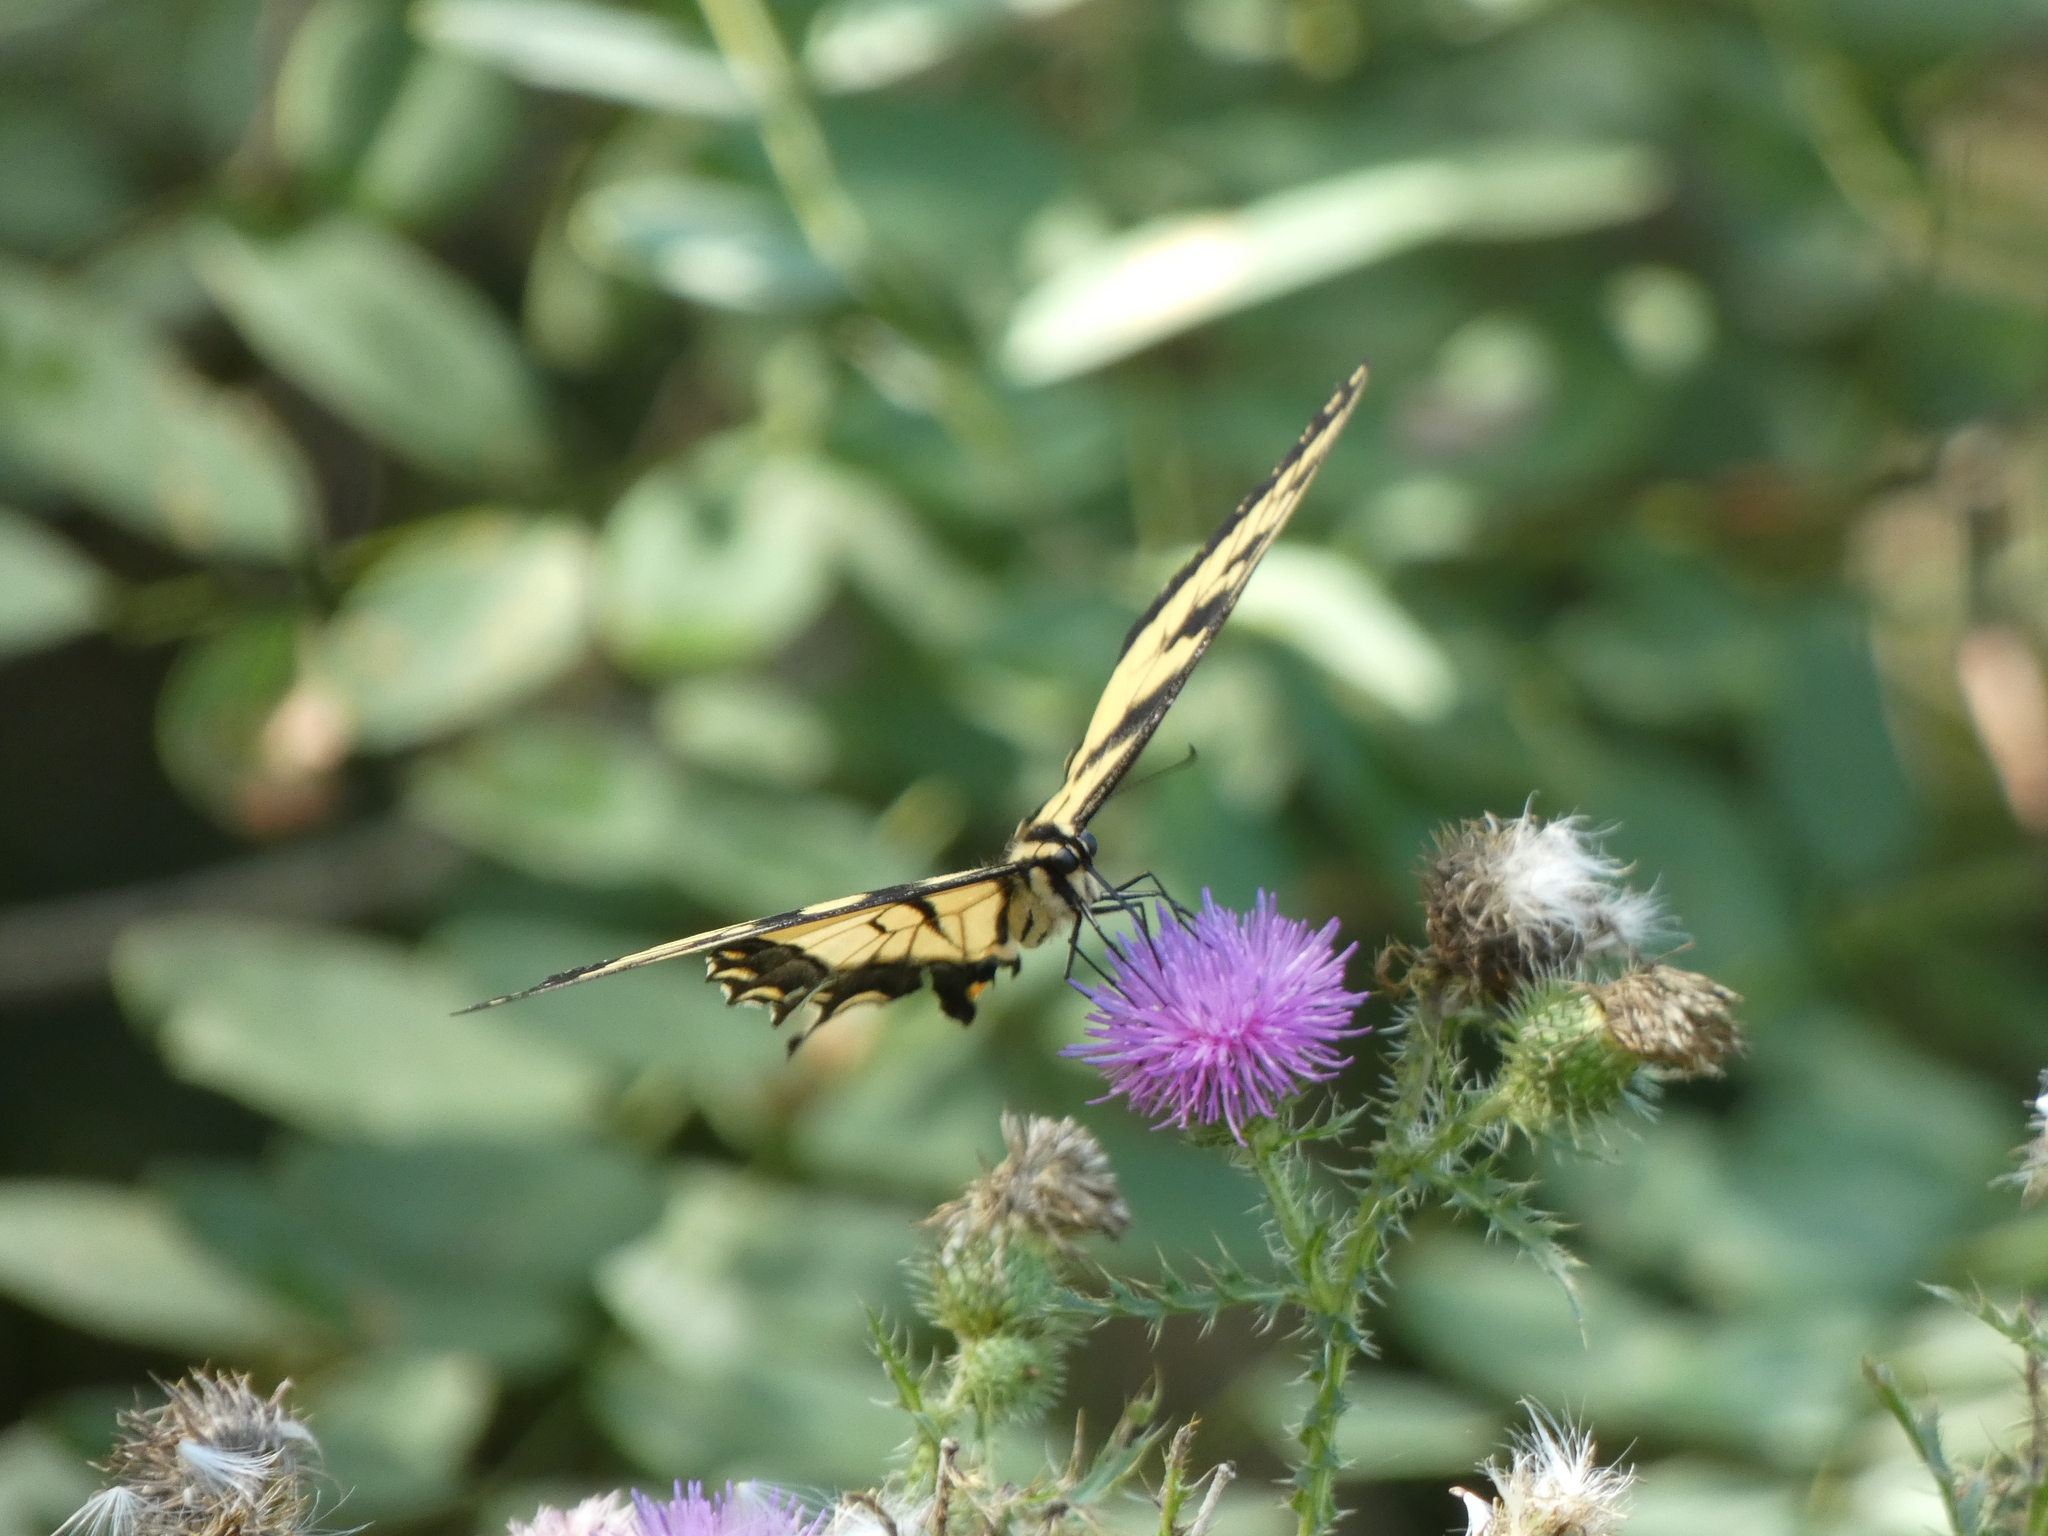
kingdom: Animalia
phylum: Arthropoda
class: Insecta
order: Lepidoptera
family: Papilionidae
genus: Papilio
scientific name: Papilio glaucus
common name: Tiger swallowtail
